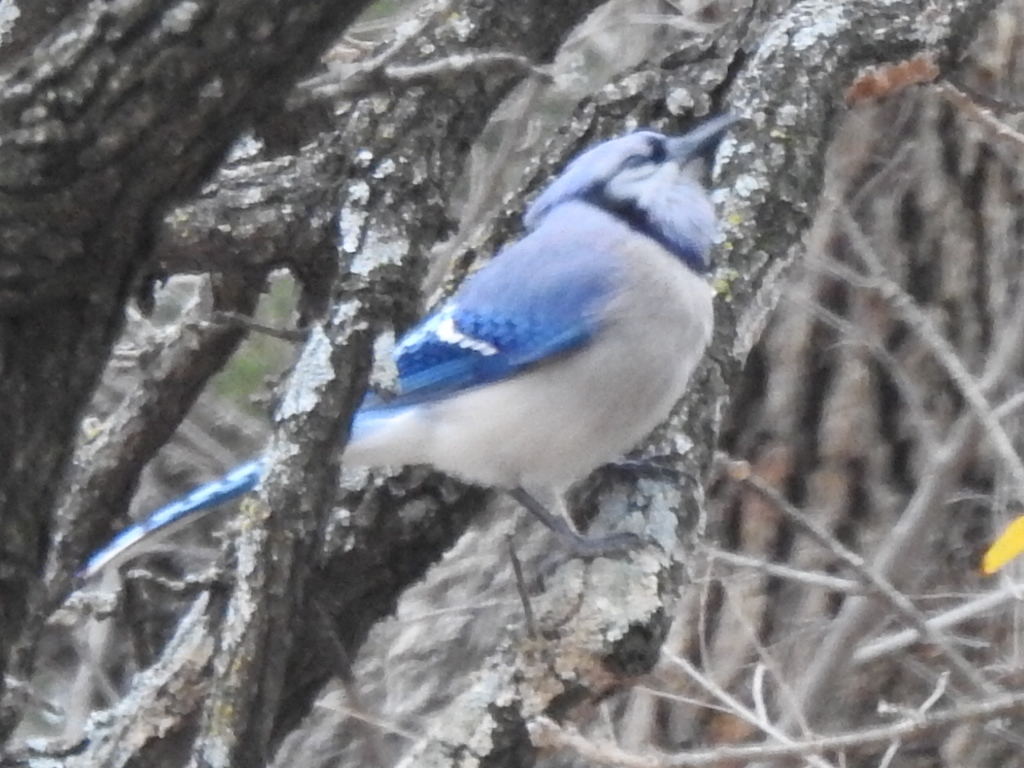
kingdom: Animalia
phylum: Chordata
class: Aves
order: Passeriformes
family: Corvidae
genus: Cyanocitta
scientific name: Cyanocitta cristata
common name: Blue jay
